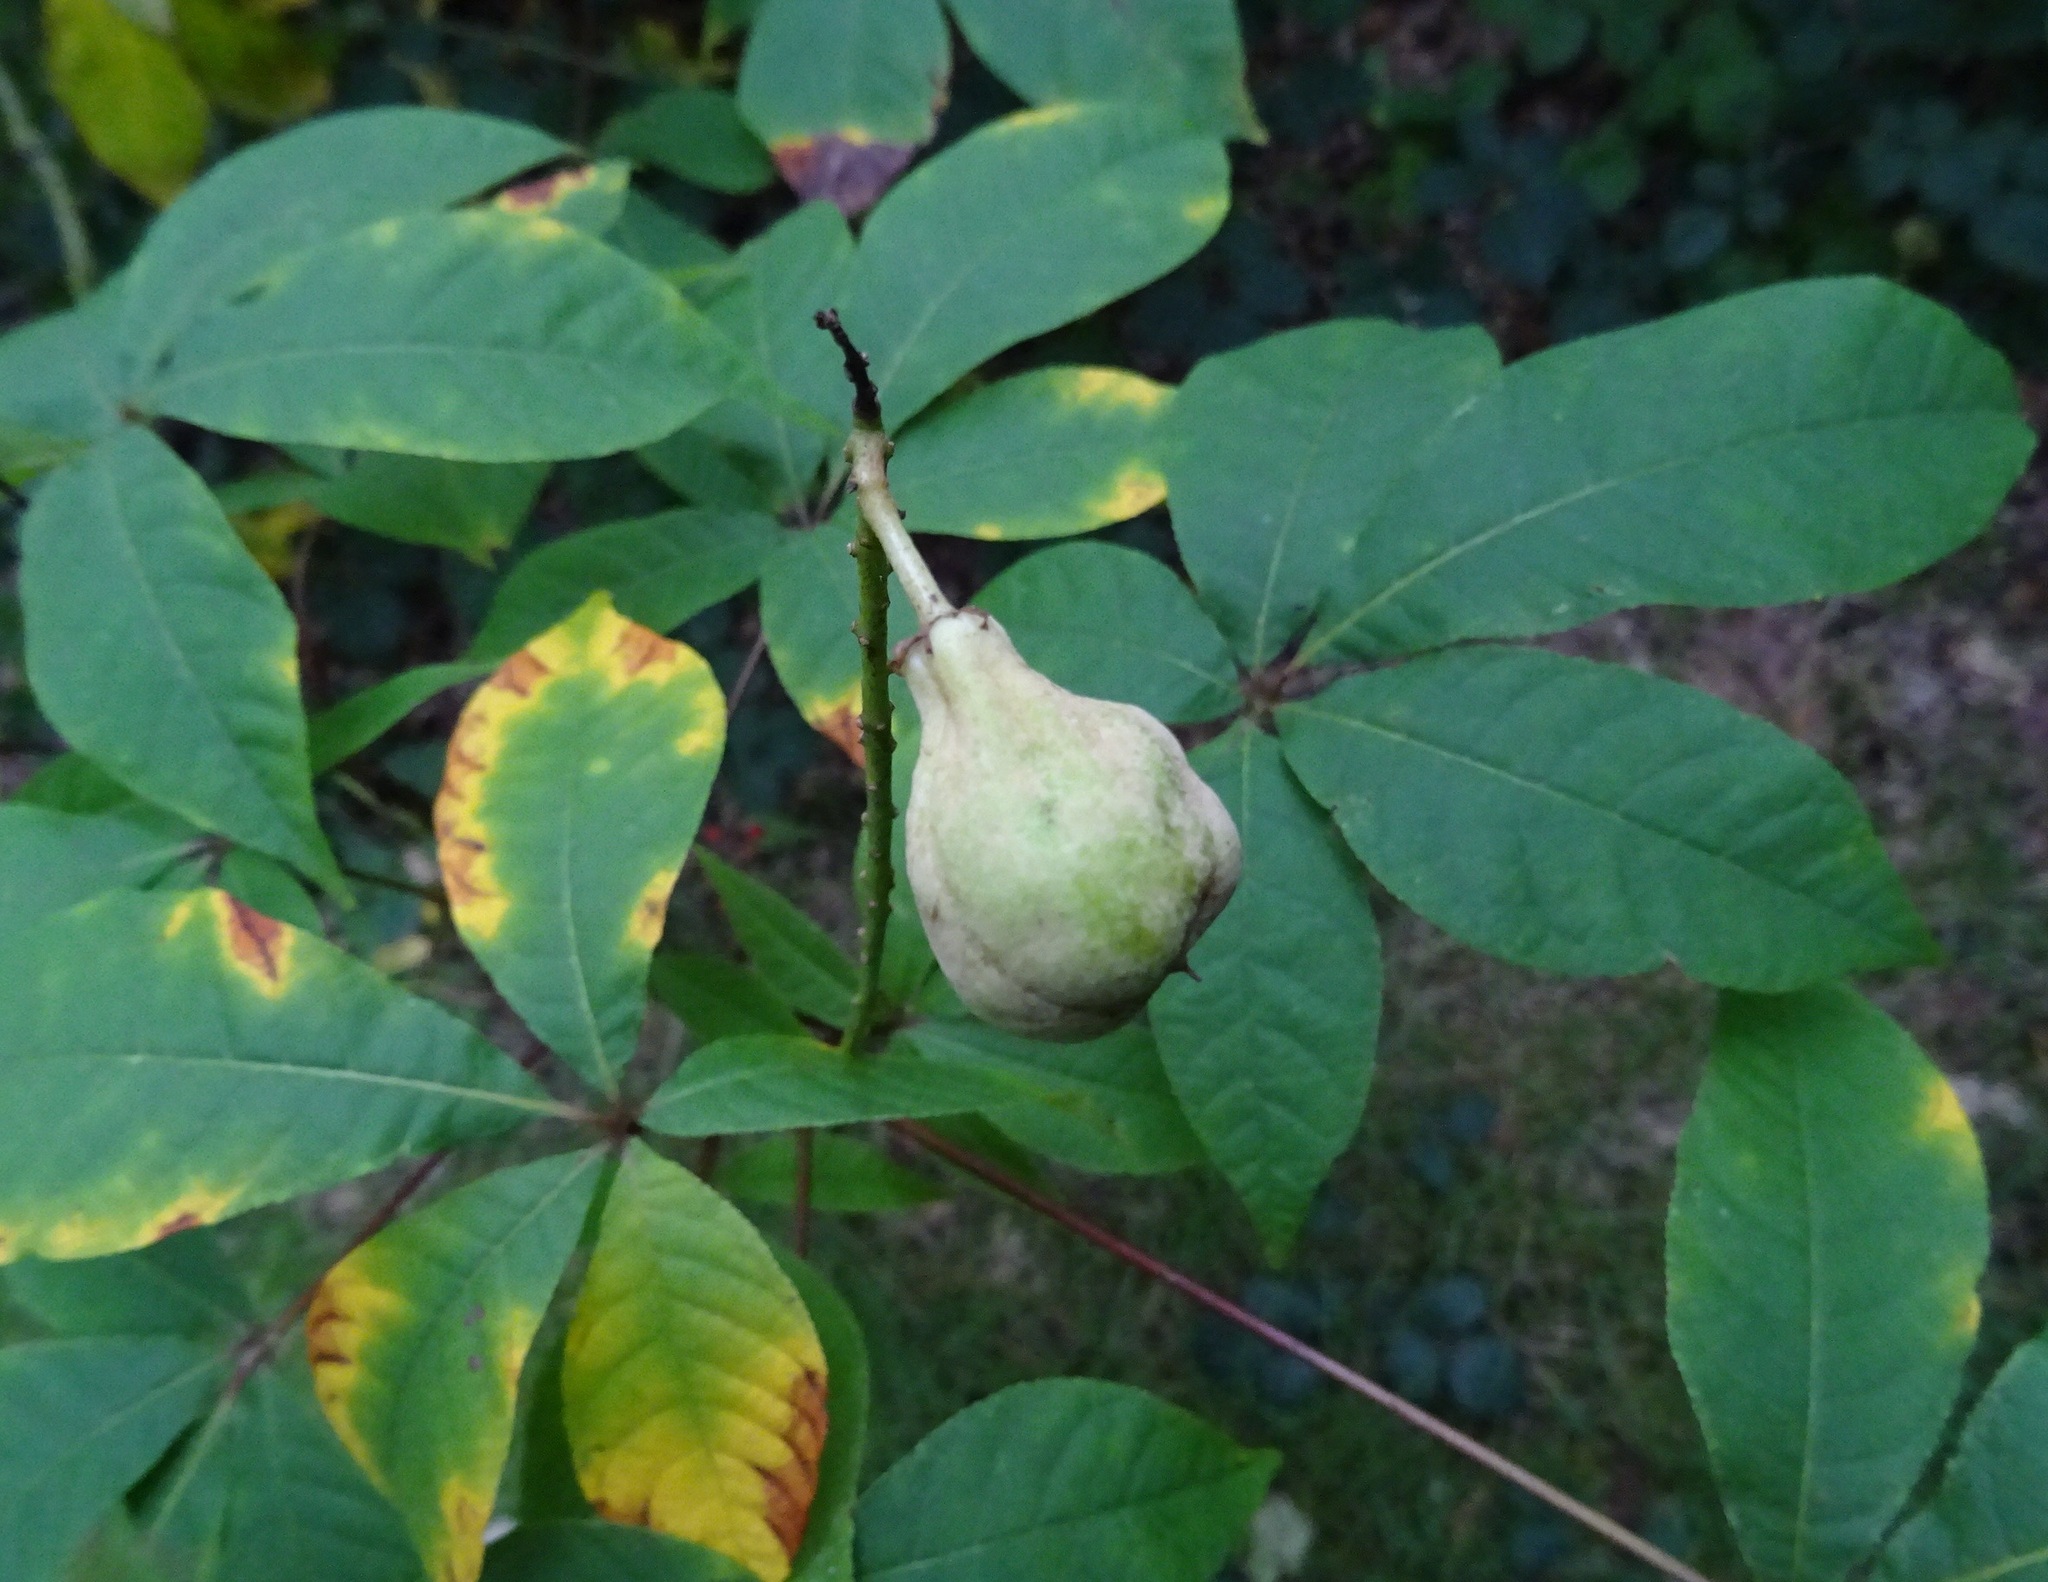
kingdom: Plantae
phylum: Tracheophyta
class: Magnoliopsida
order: Sapindales
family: Sapindaceae
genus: Aesculus
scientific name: Aesculus parviflora
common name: Bottlebrush buckeye
